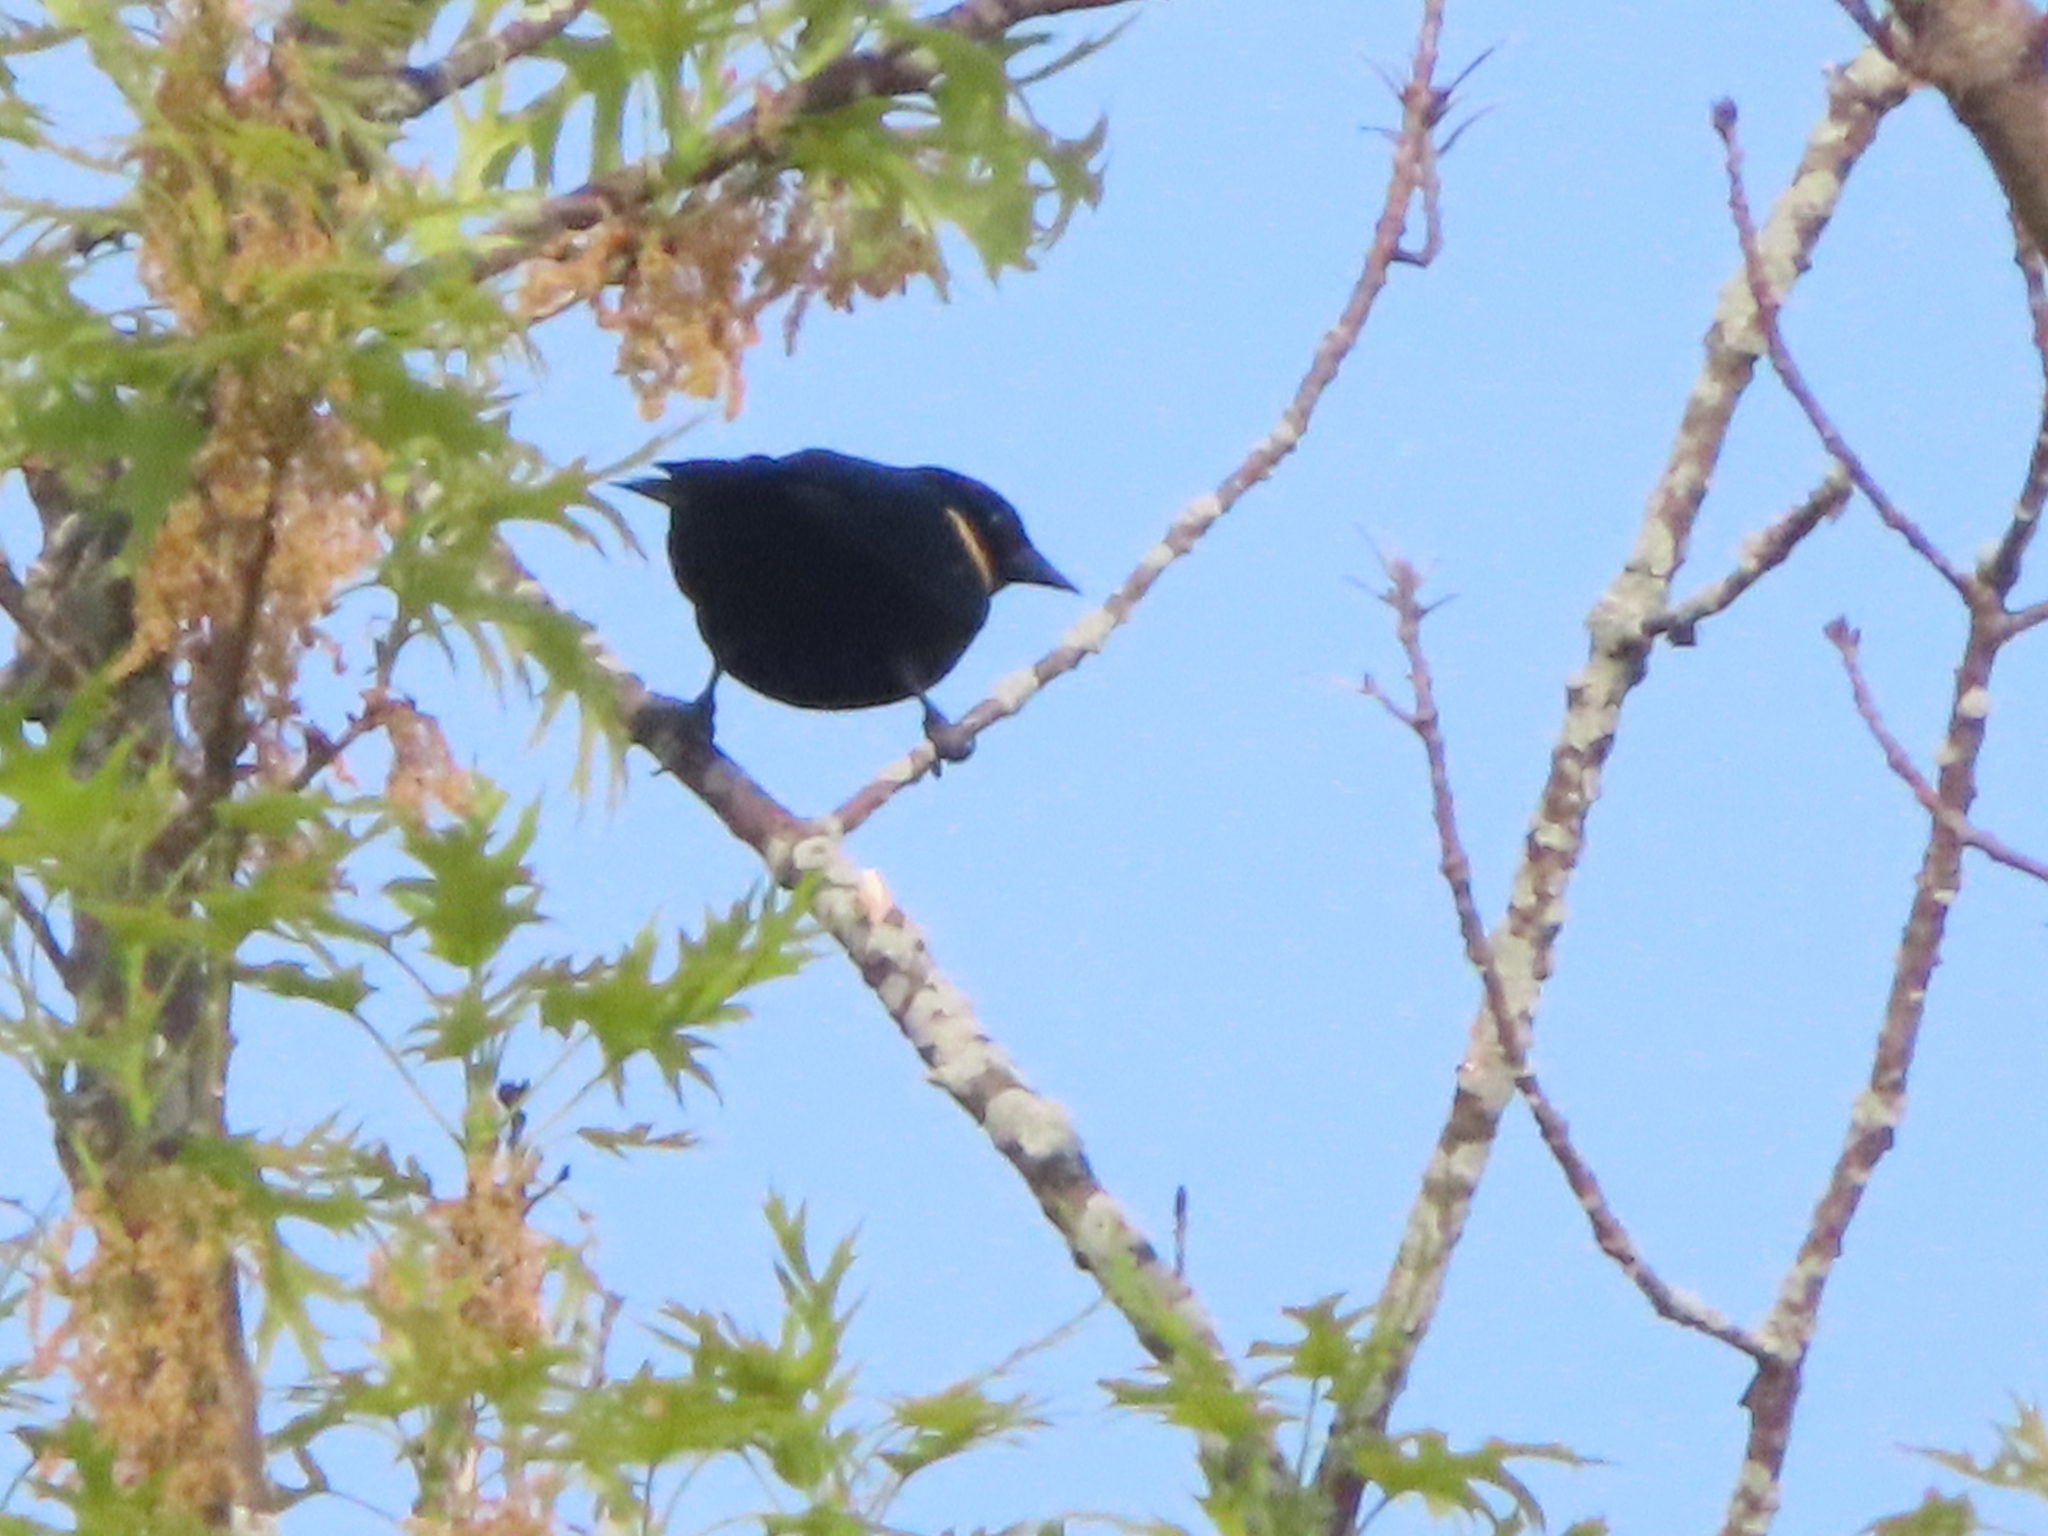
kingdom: Animalia
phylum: Chordata
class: Aves
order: Passeriformes
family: Icteridae
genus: Agelaius
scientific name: Agelaius phoeniceus
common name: Red-winged blackbird
